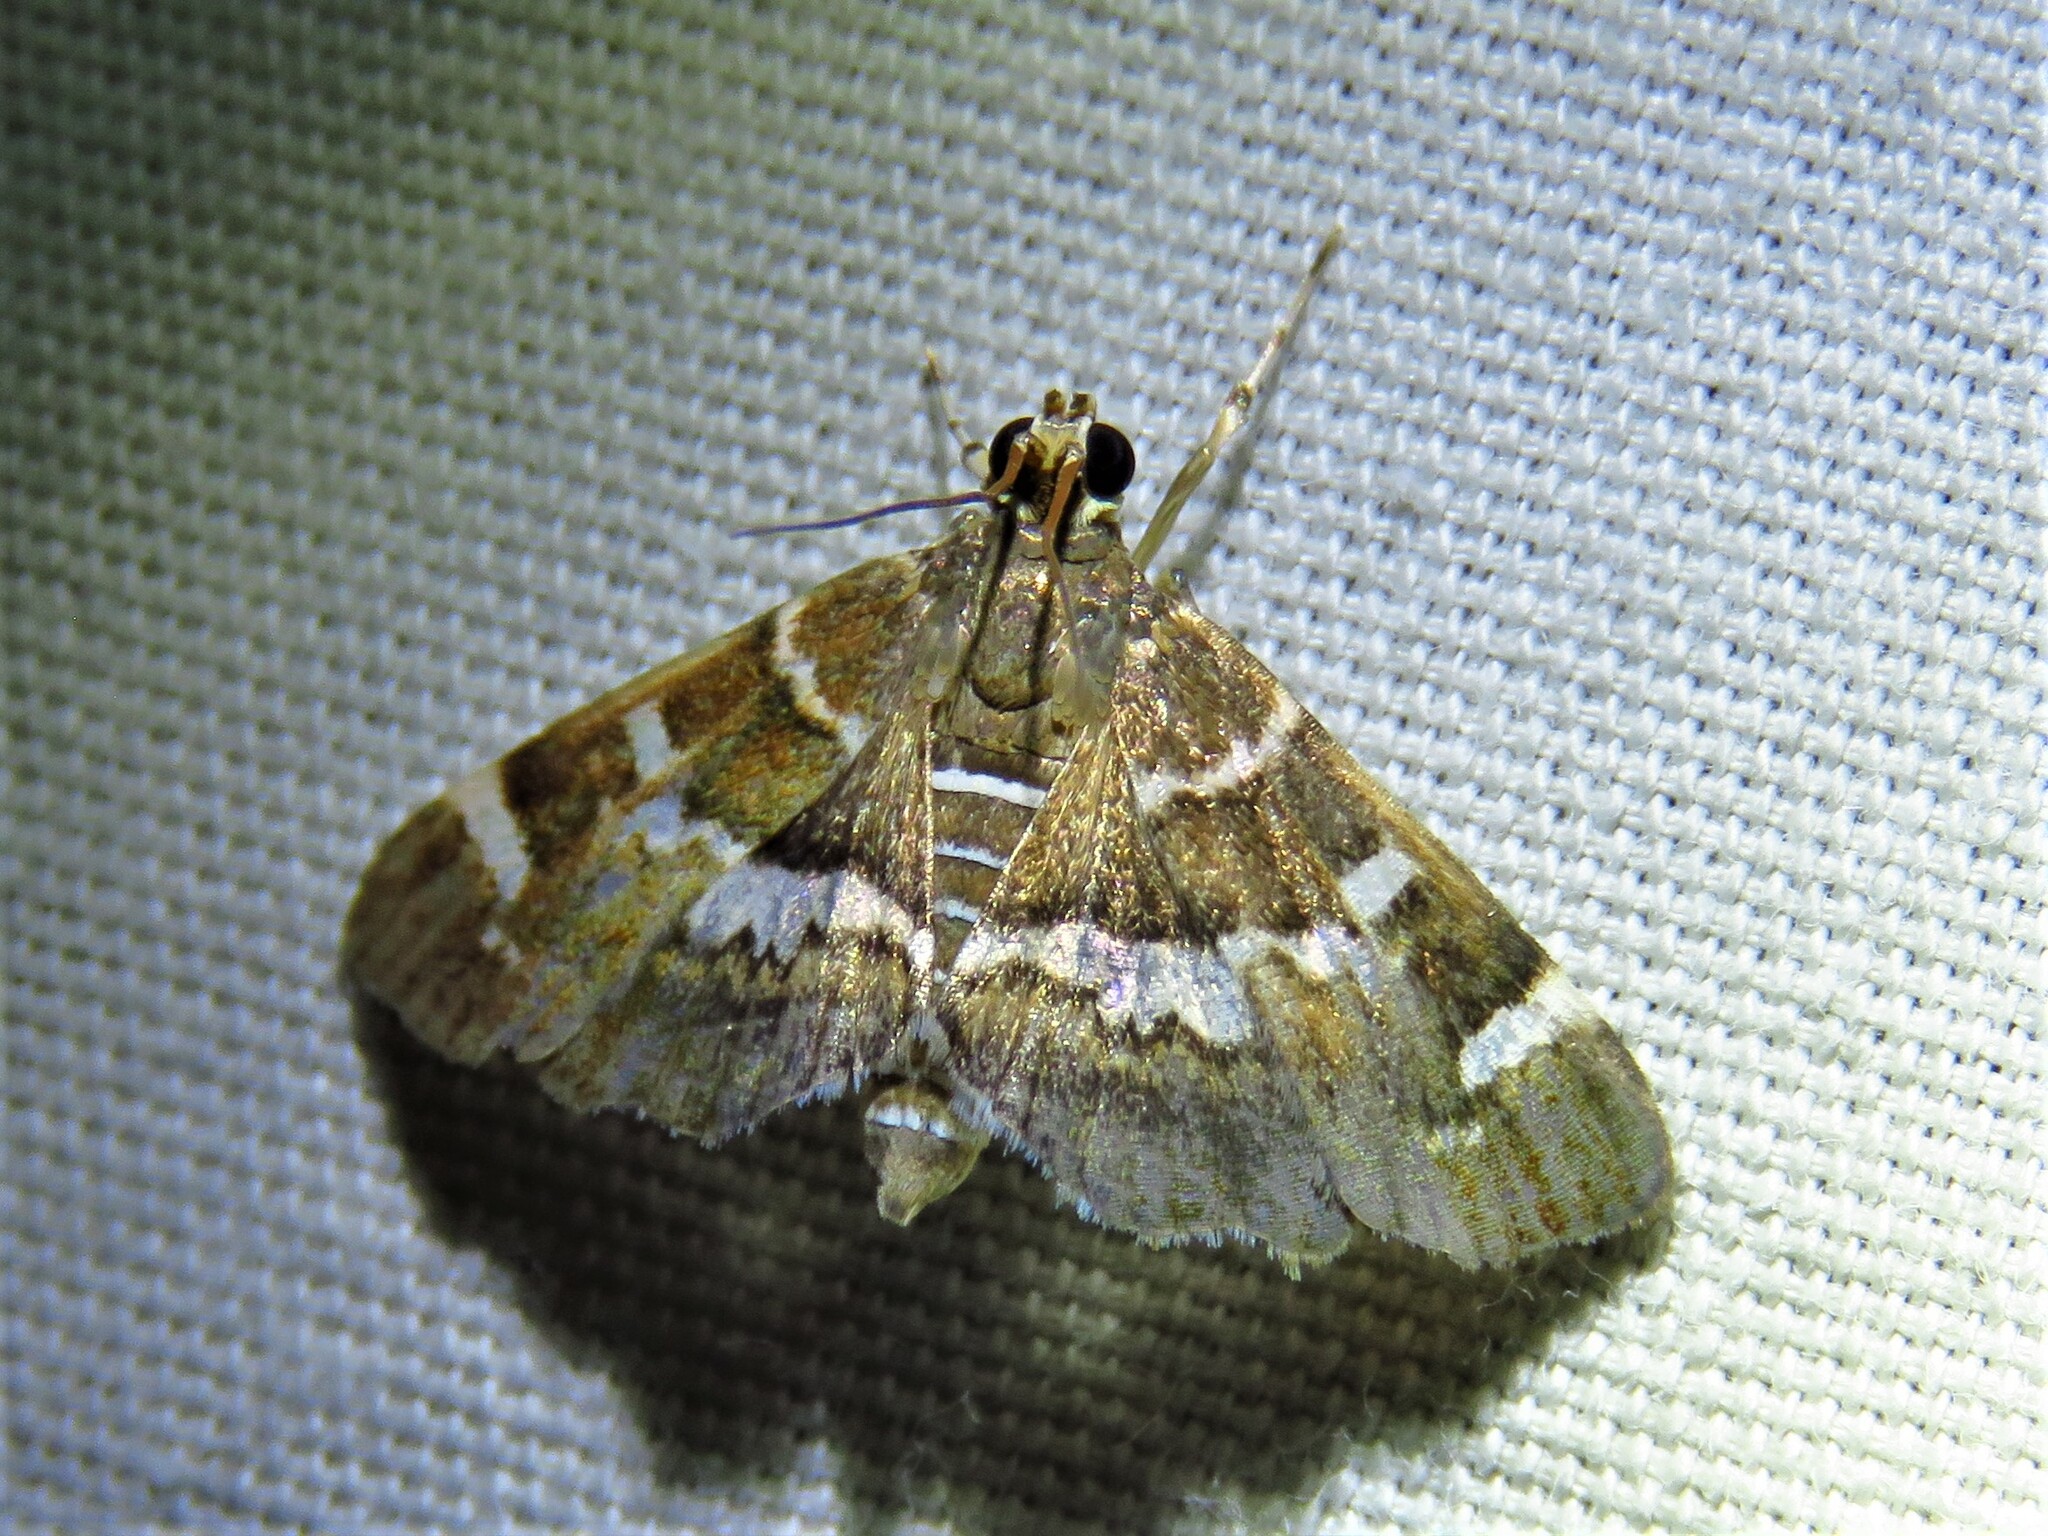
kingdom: Animalia
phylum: Arthropoda
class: Insecta
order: Lepidoptera
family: Crambidae
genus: Hymenia
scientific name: Hymenia perspectalis
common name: Spotted beet webworm
